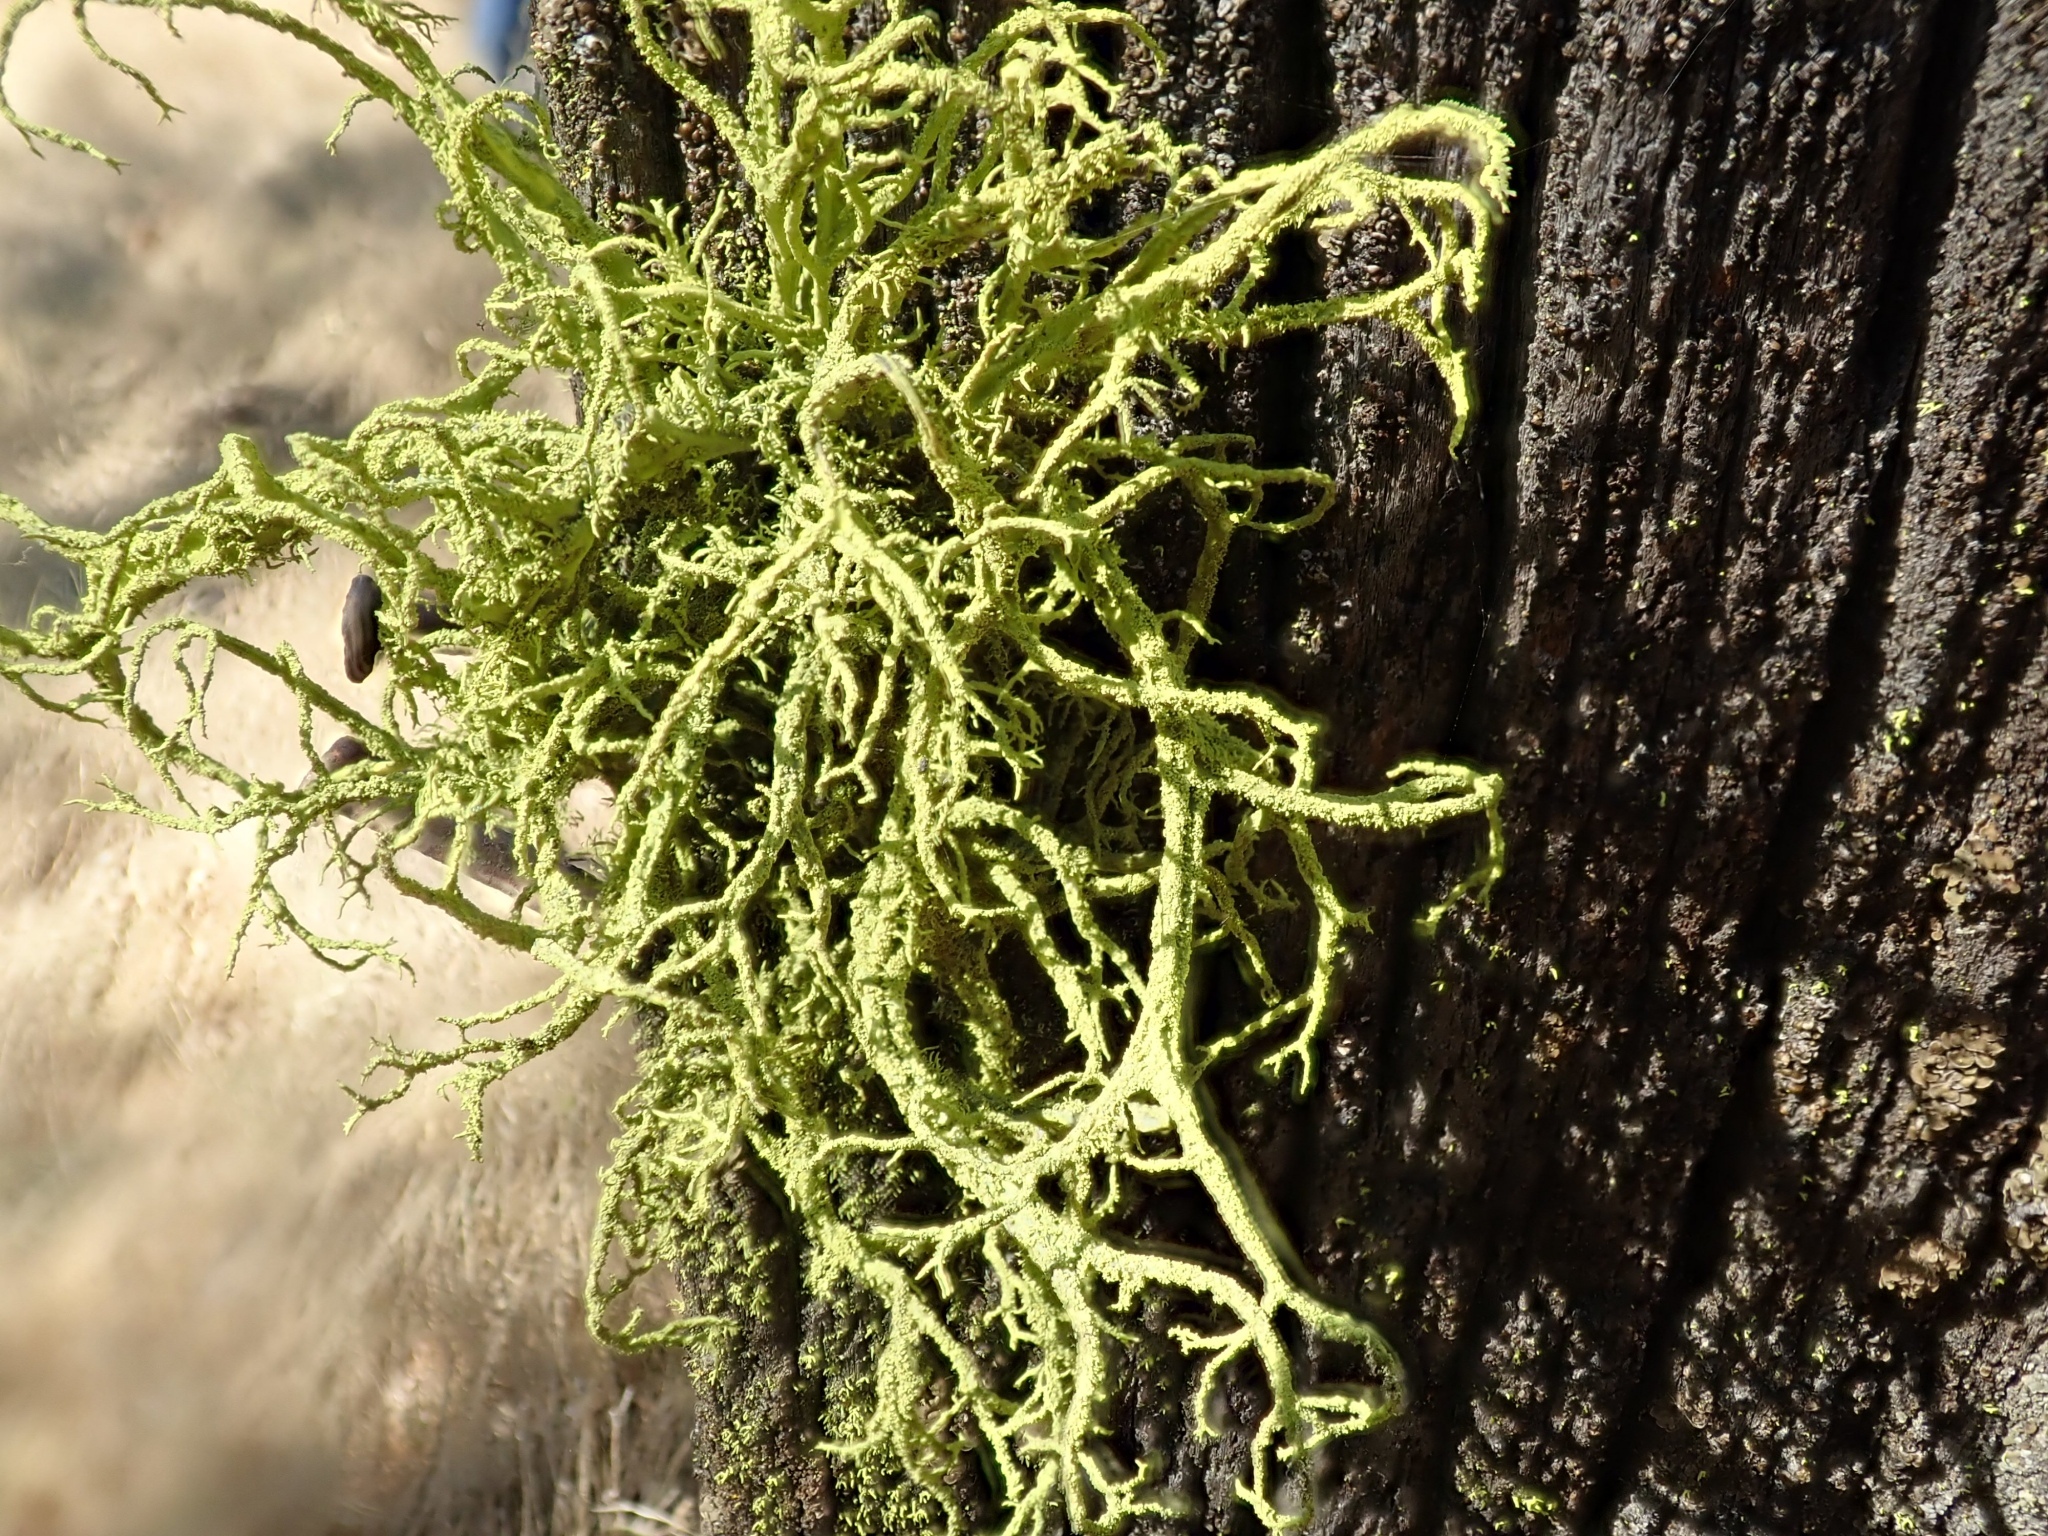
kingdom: Fungi
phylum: Ascomycota
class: Lecanoromycetes
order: Lecanorales
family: Parmeliaceae
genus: Letharia
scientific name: Letharia vulpina
